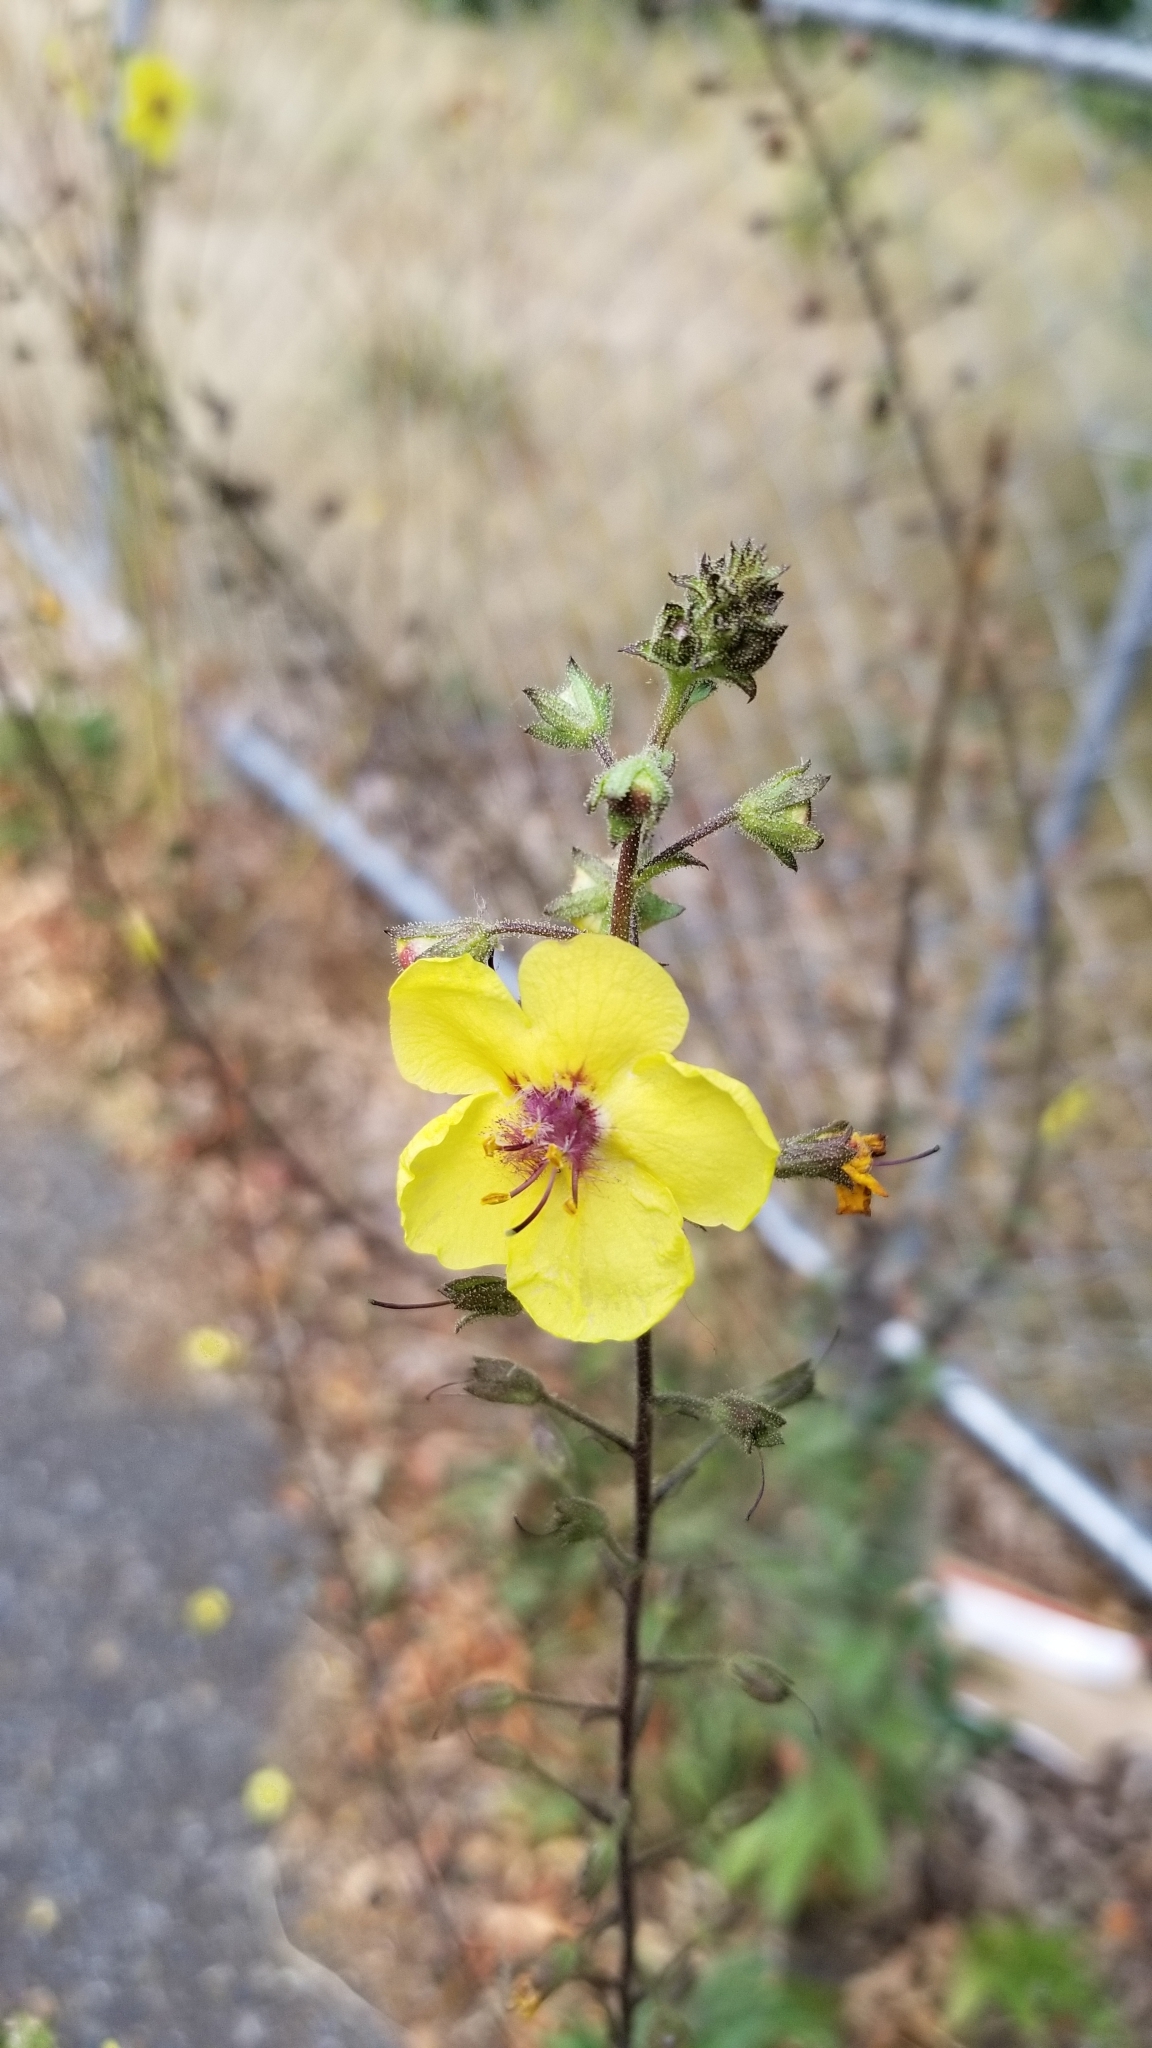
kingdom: Plantae
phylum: Tracheophyta
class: Magnoliopsida
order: Lamiales
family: Scrophulariaceae
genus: Verbascum
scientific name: Verbascum blattaria
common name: Moth mullein
